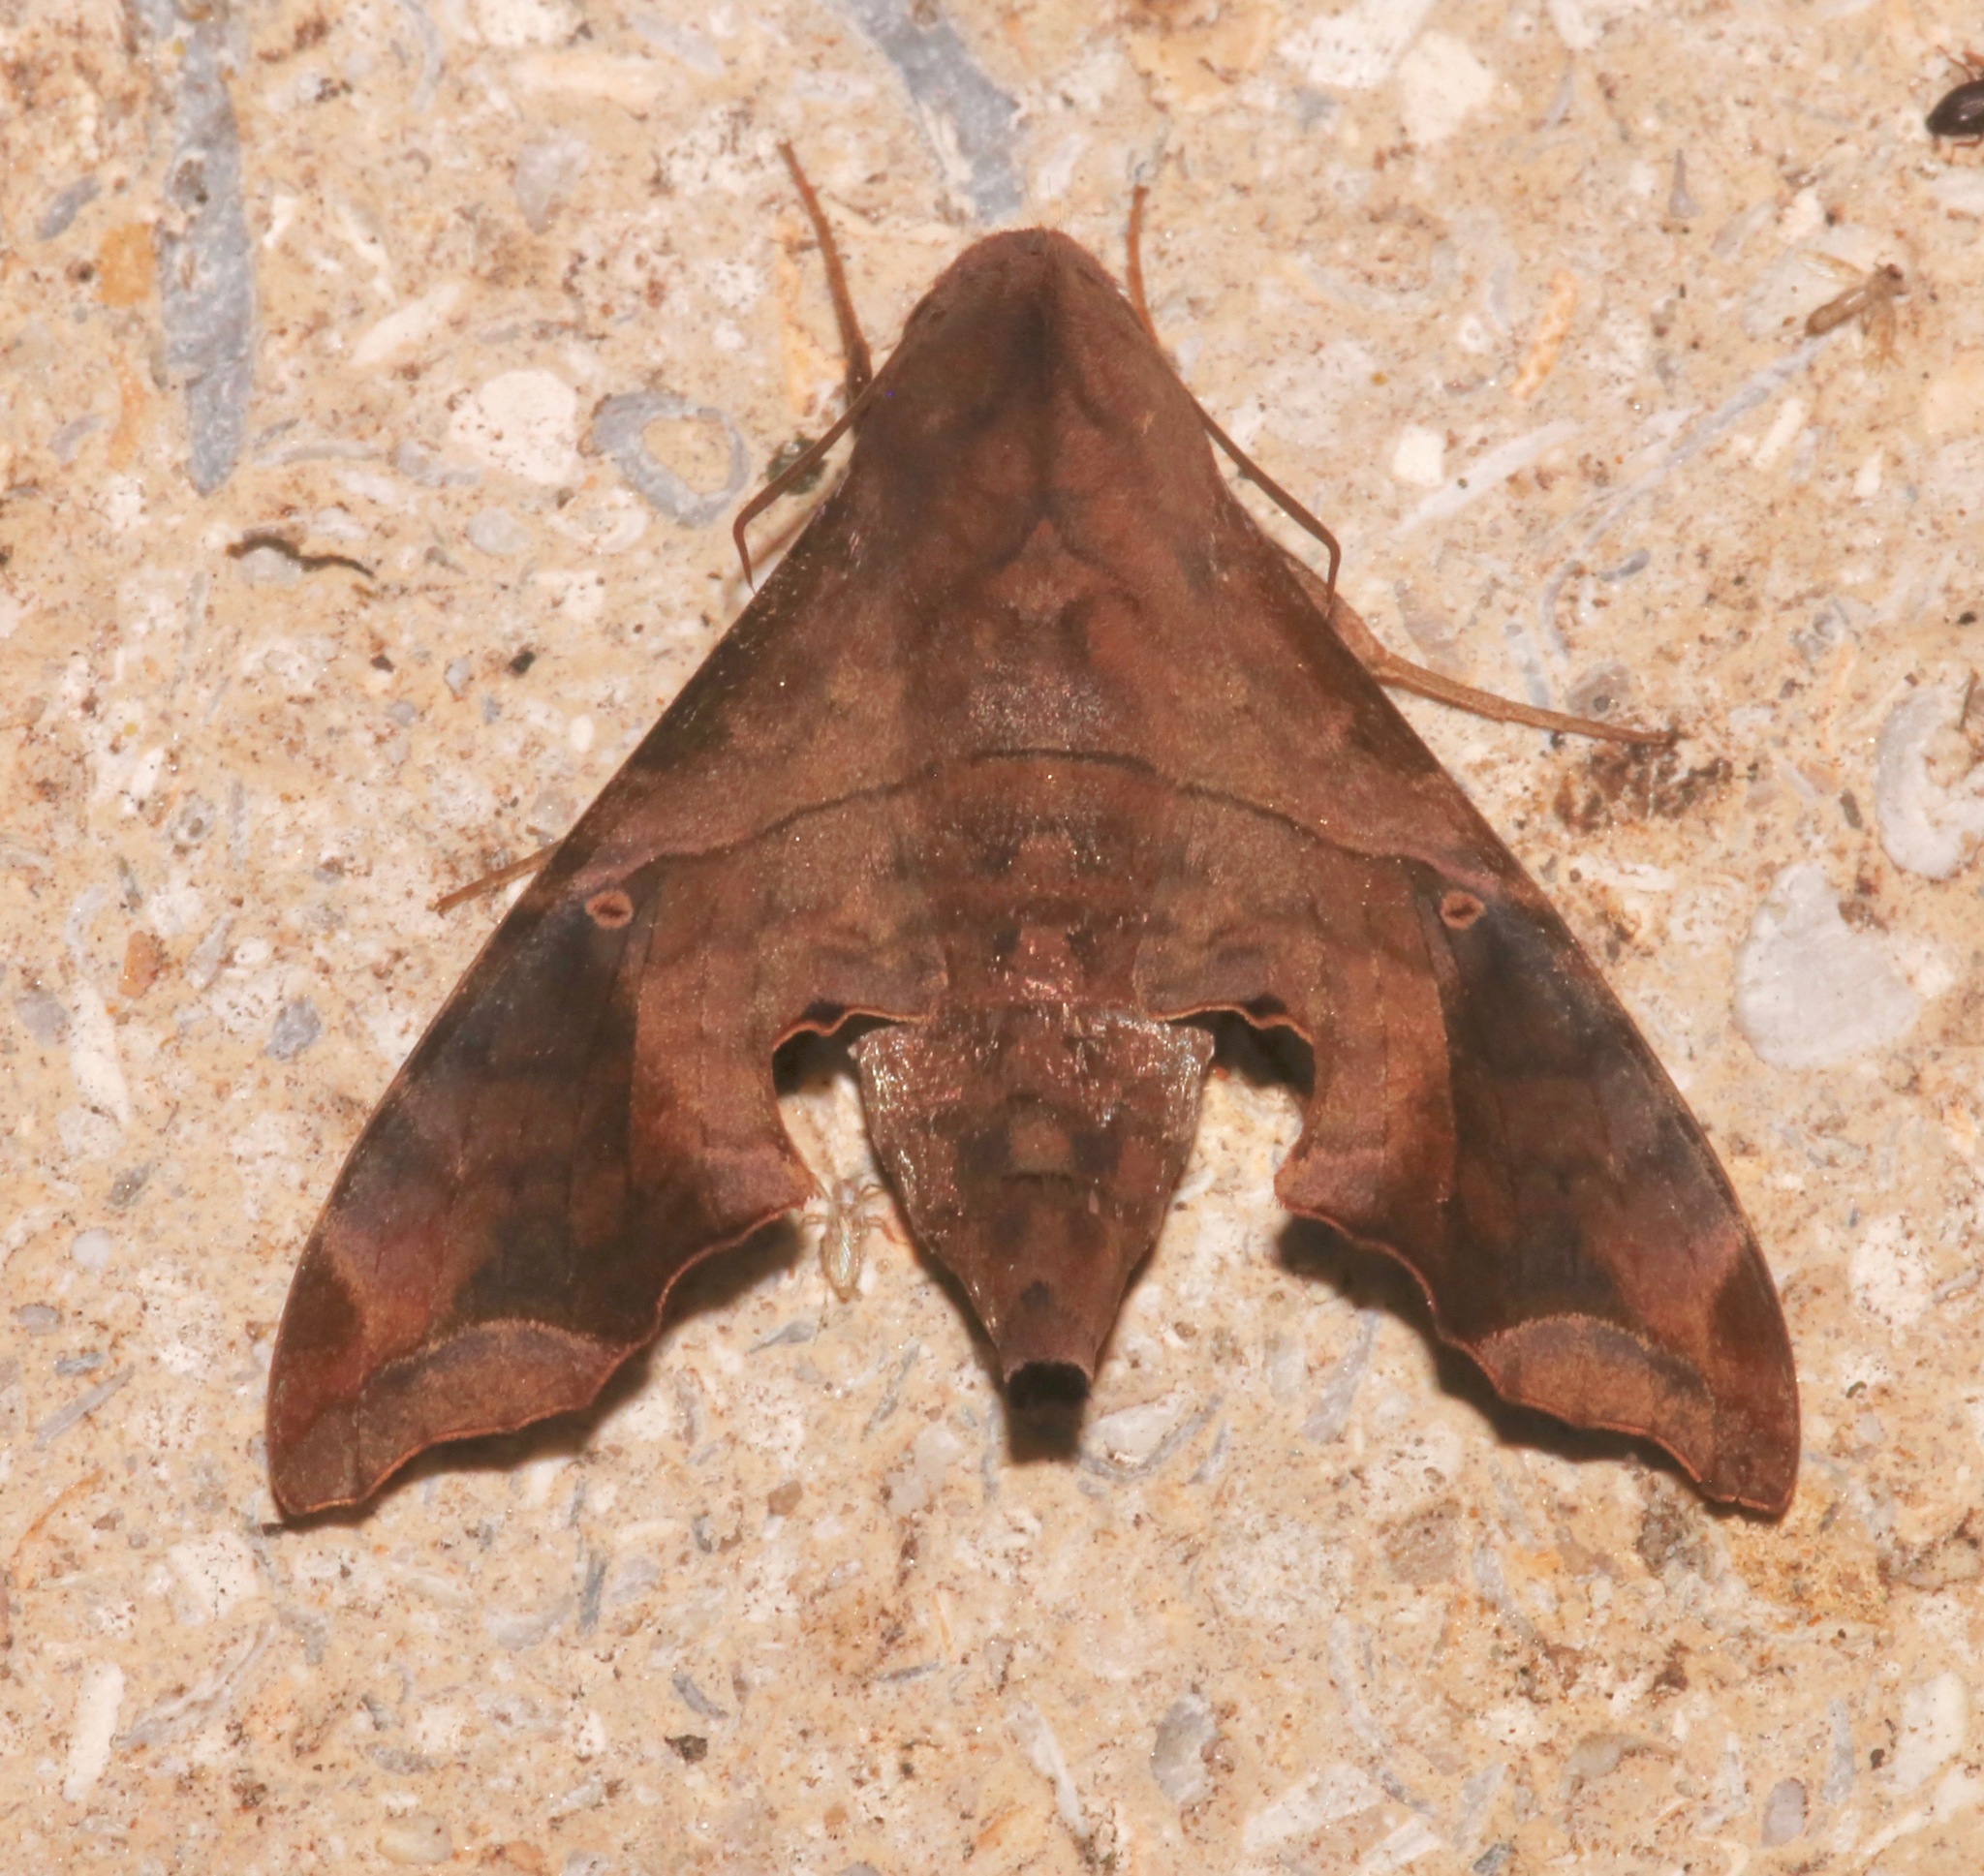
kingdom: Animalia
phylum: Arthropoda
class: Insecta
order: Lepidoptera
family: Sphingidae
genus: Enyo
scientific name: Enyo lugubris
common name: Mournful sphinx
